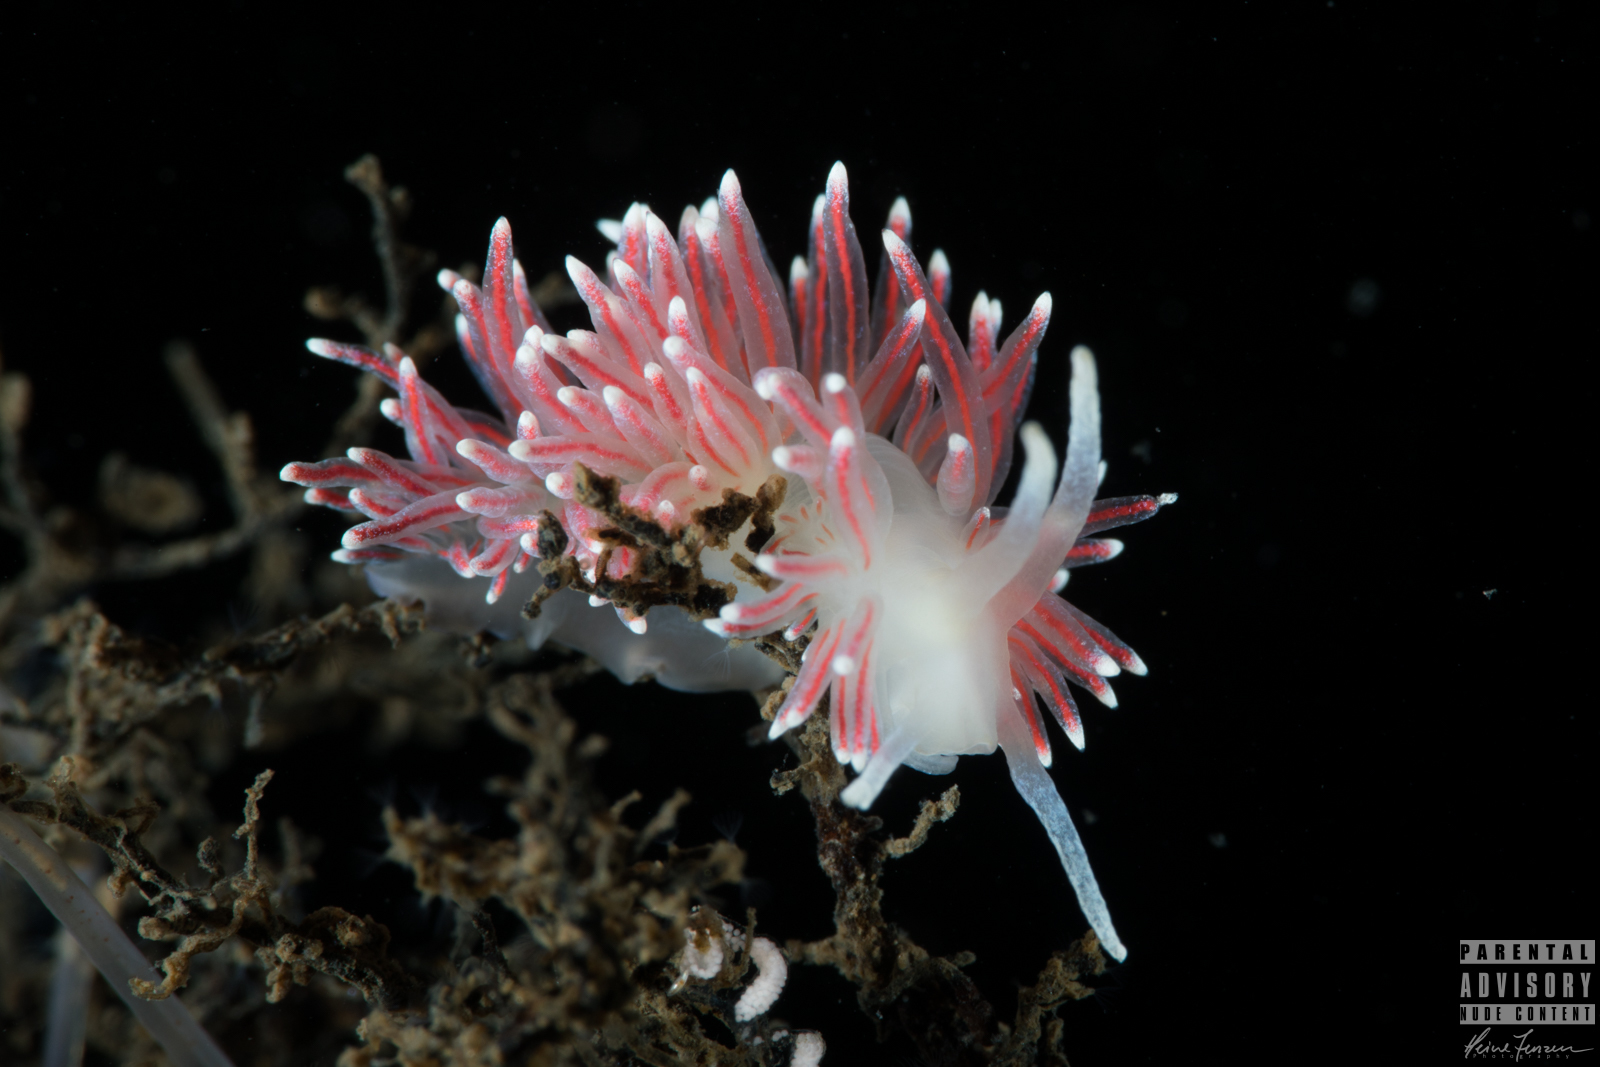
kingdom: Animalia
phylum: Mollusca
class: Gastropoda
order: Nudibranchia
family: Flabellinidae
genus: Carronella
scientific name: Carronella pellucida
